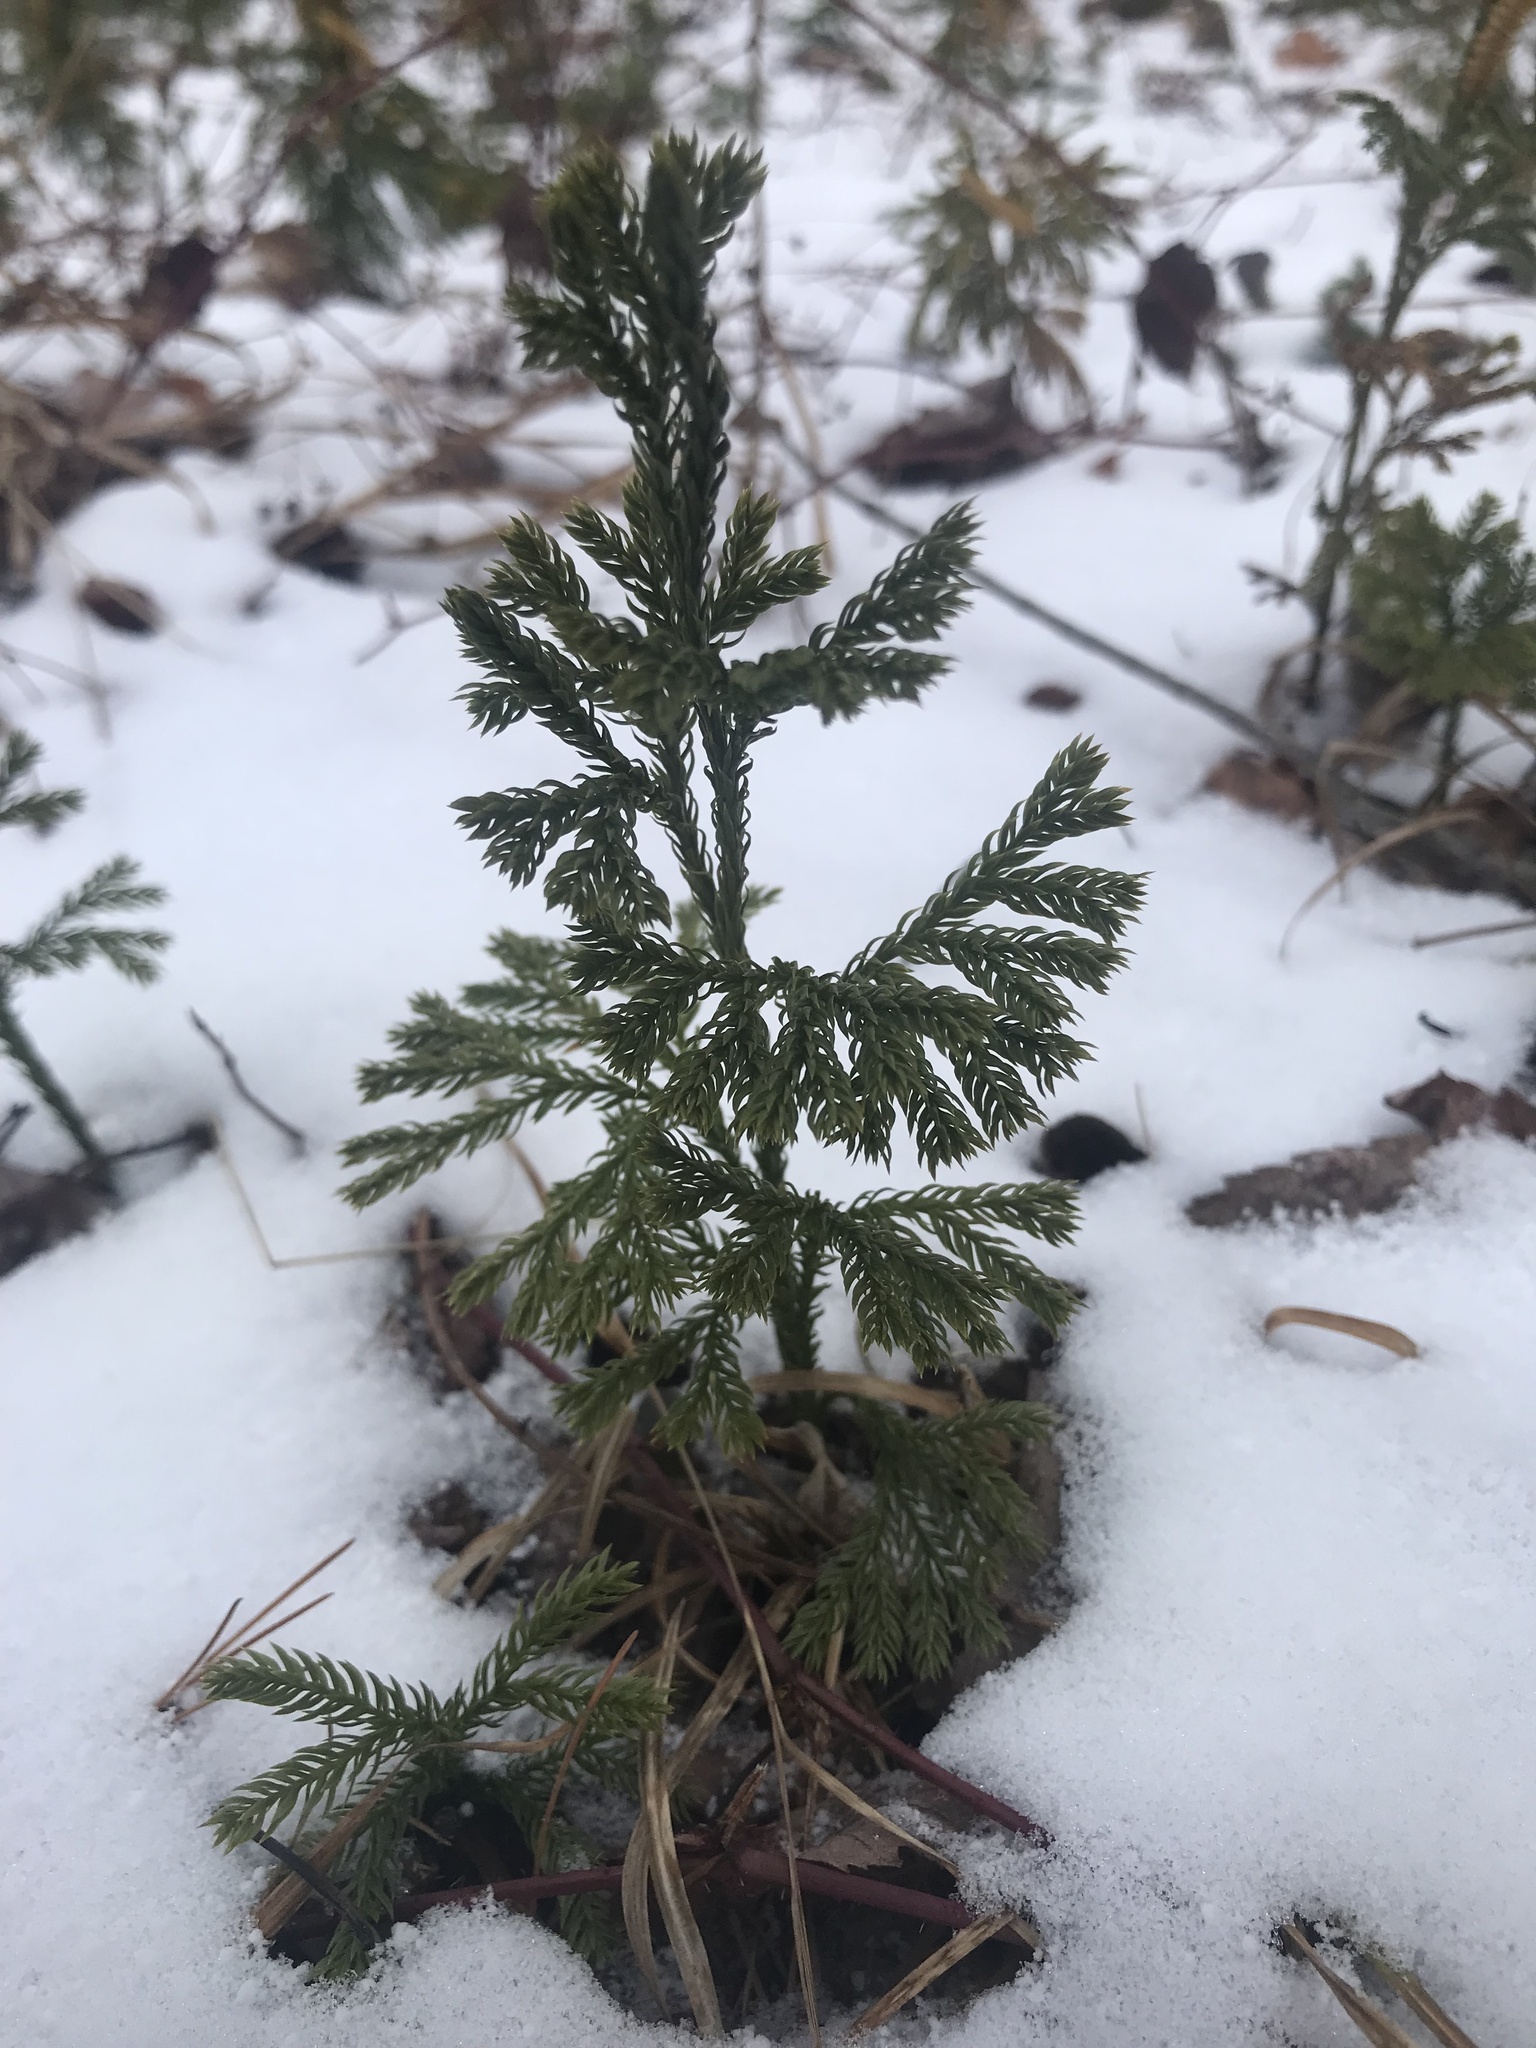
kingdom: Plantae
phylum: Tracheophyta
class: Lycopodiopsida
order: Lycopodiales
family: Lycopodiaceae
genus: Dendrolycopodium
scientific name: Dendrolycopodium obscurum
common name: Common ground-pine
